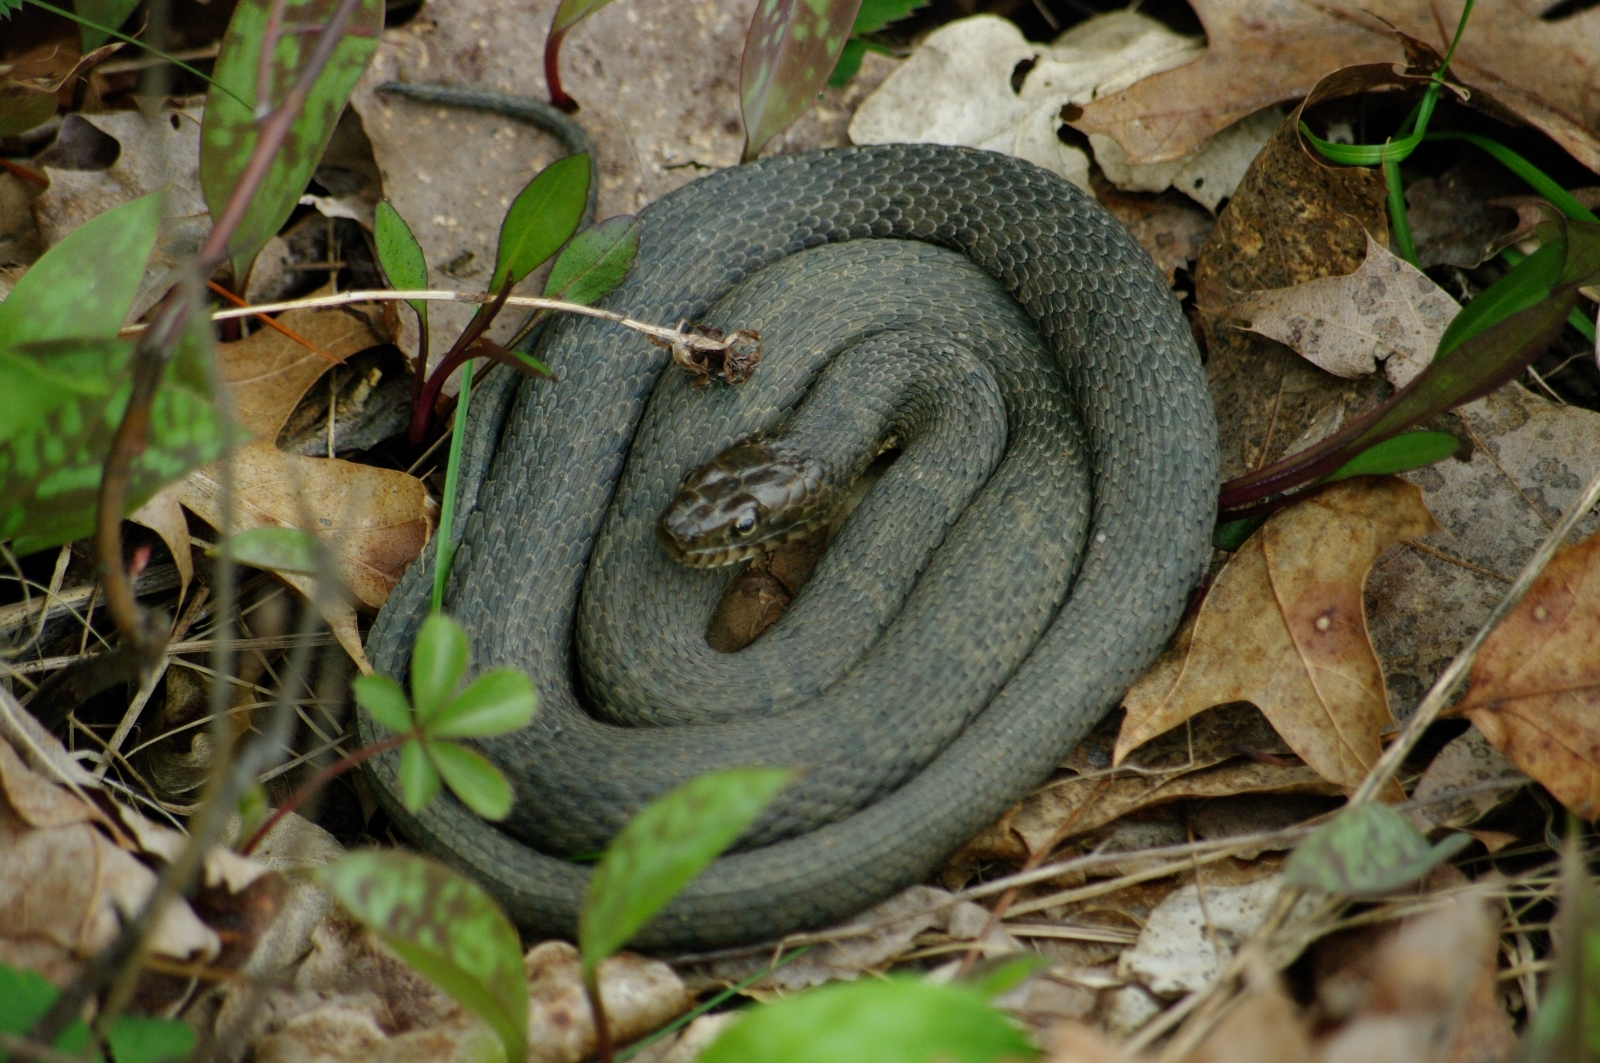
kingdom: Animalia
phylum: Chordata
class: Squamata
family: Colubridae
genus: Nerodia
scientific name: Nerodia sipedon
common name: Northern water snake
